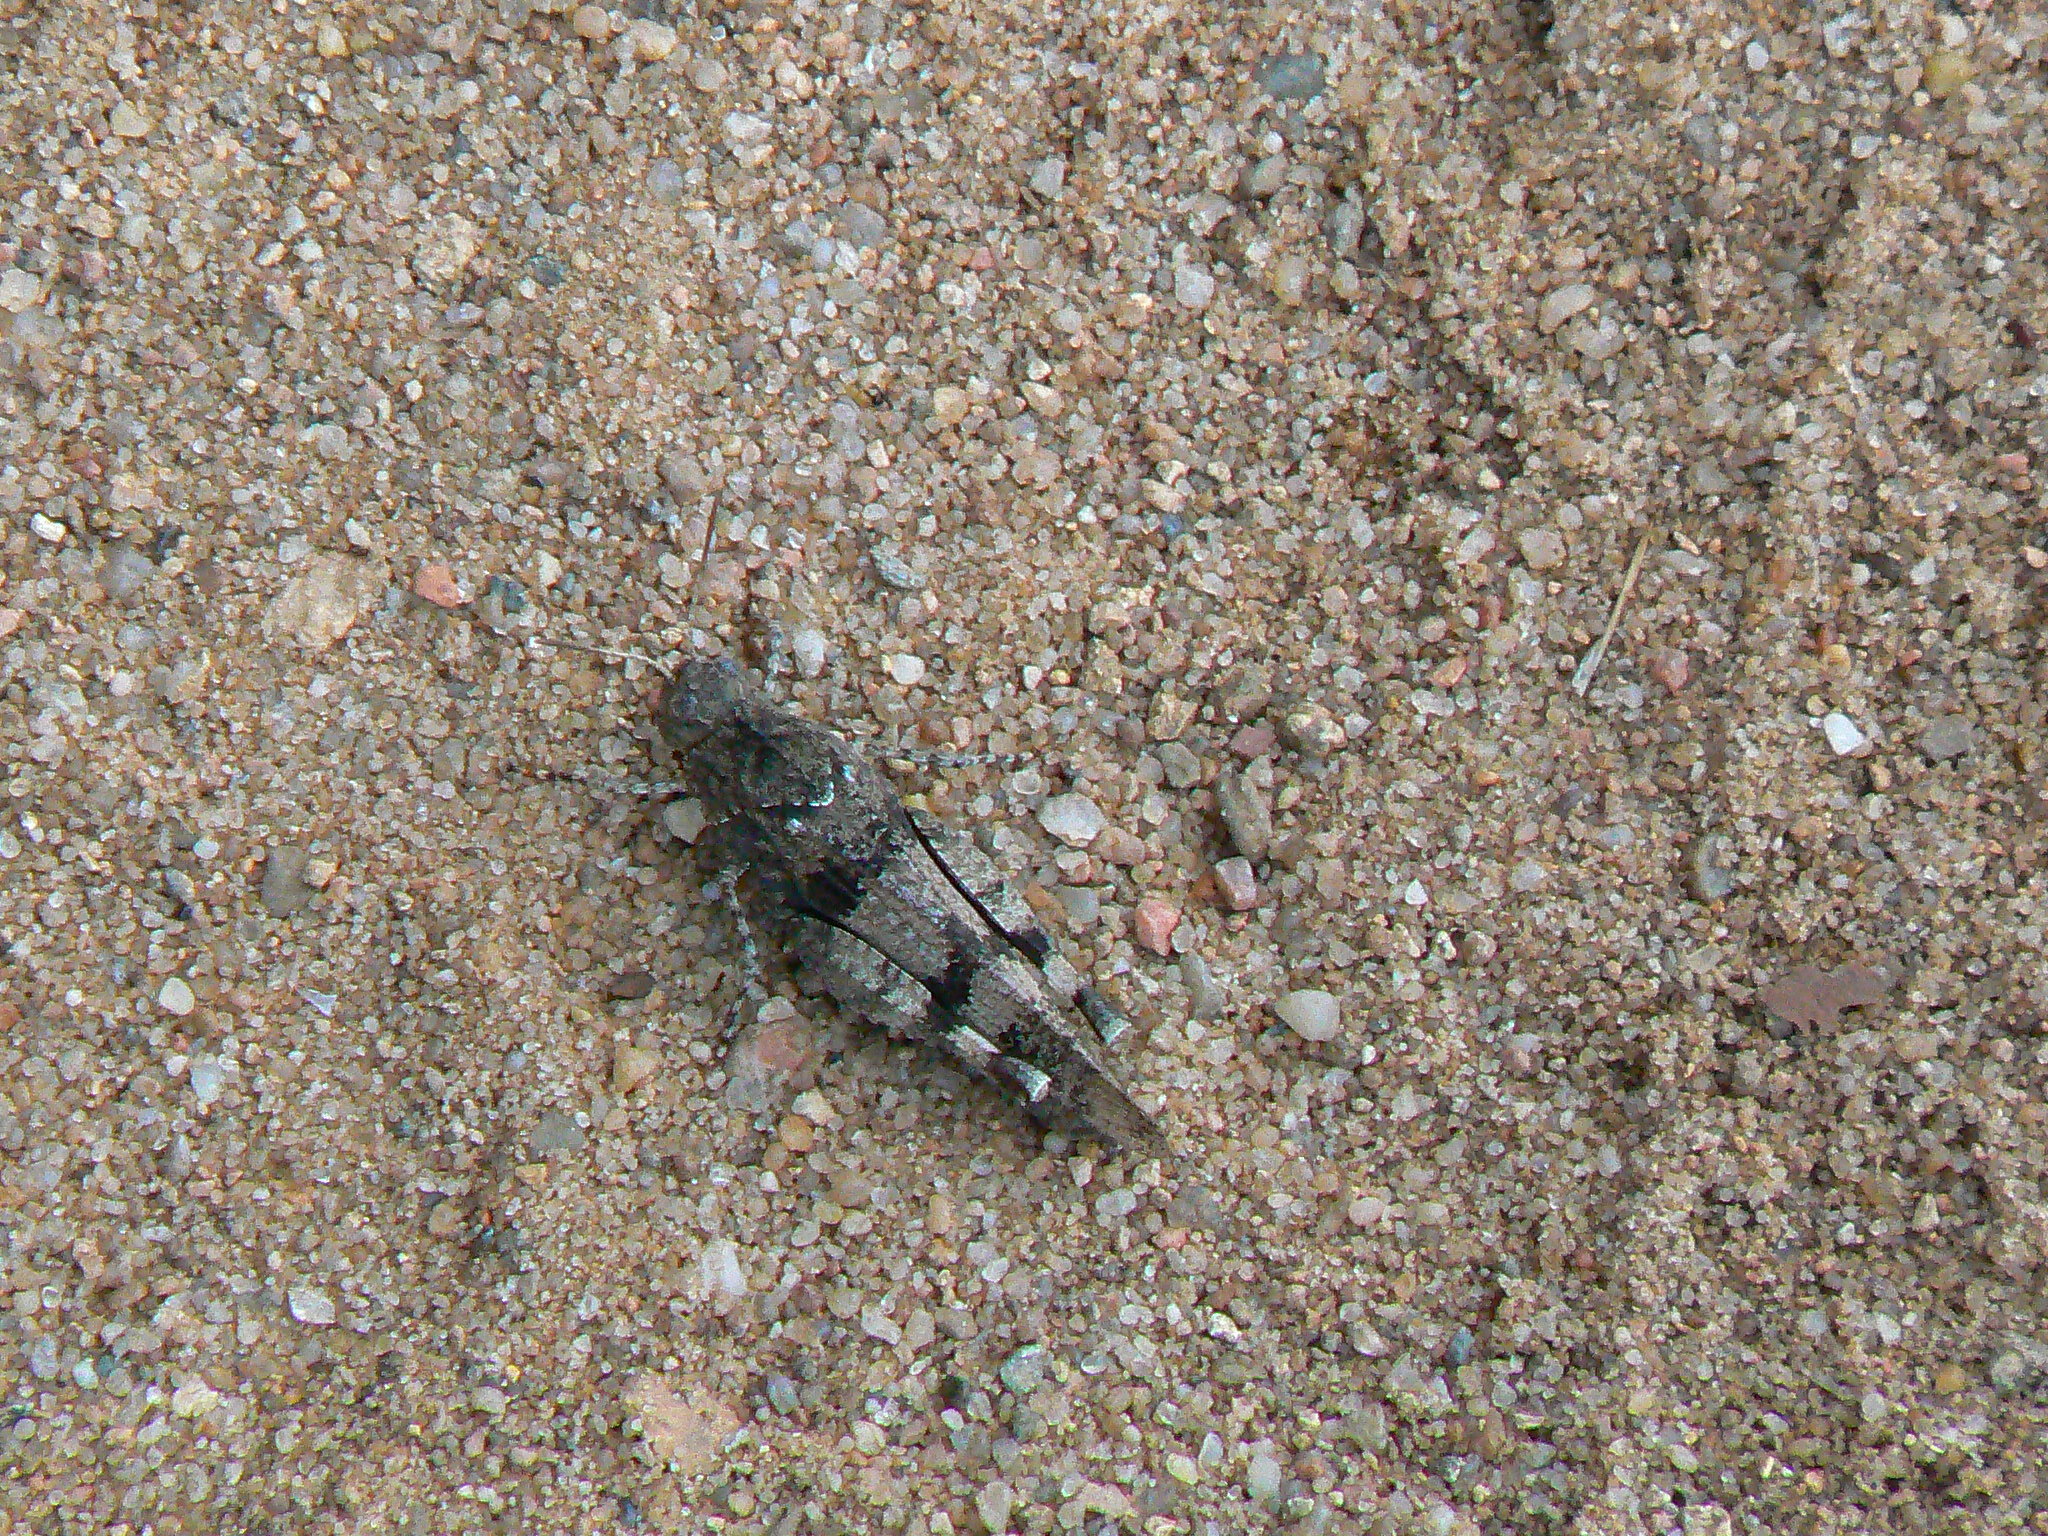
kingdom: Animalia
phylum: Arthropoda
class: Insecta
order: Orthoptera
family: Acrididae
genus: Oedipoda
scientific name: Oedipoda caerulescens
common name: Blue-winged grasshopper
